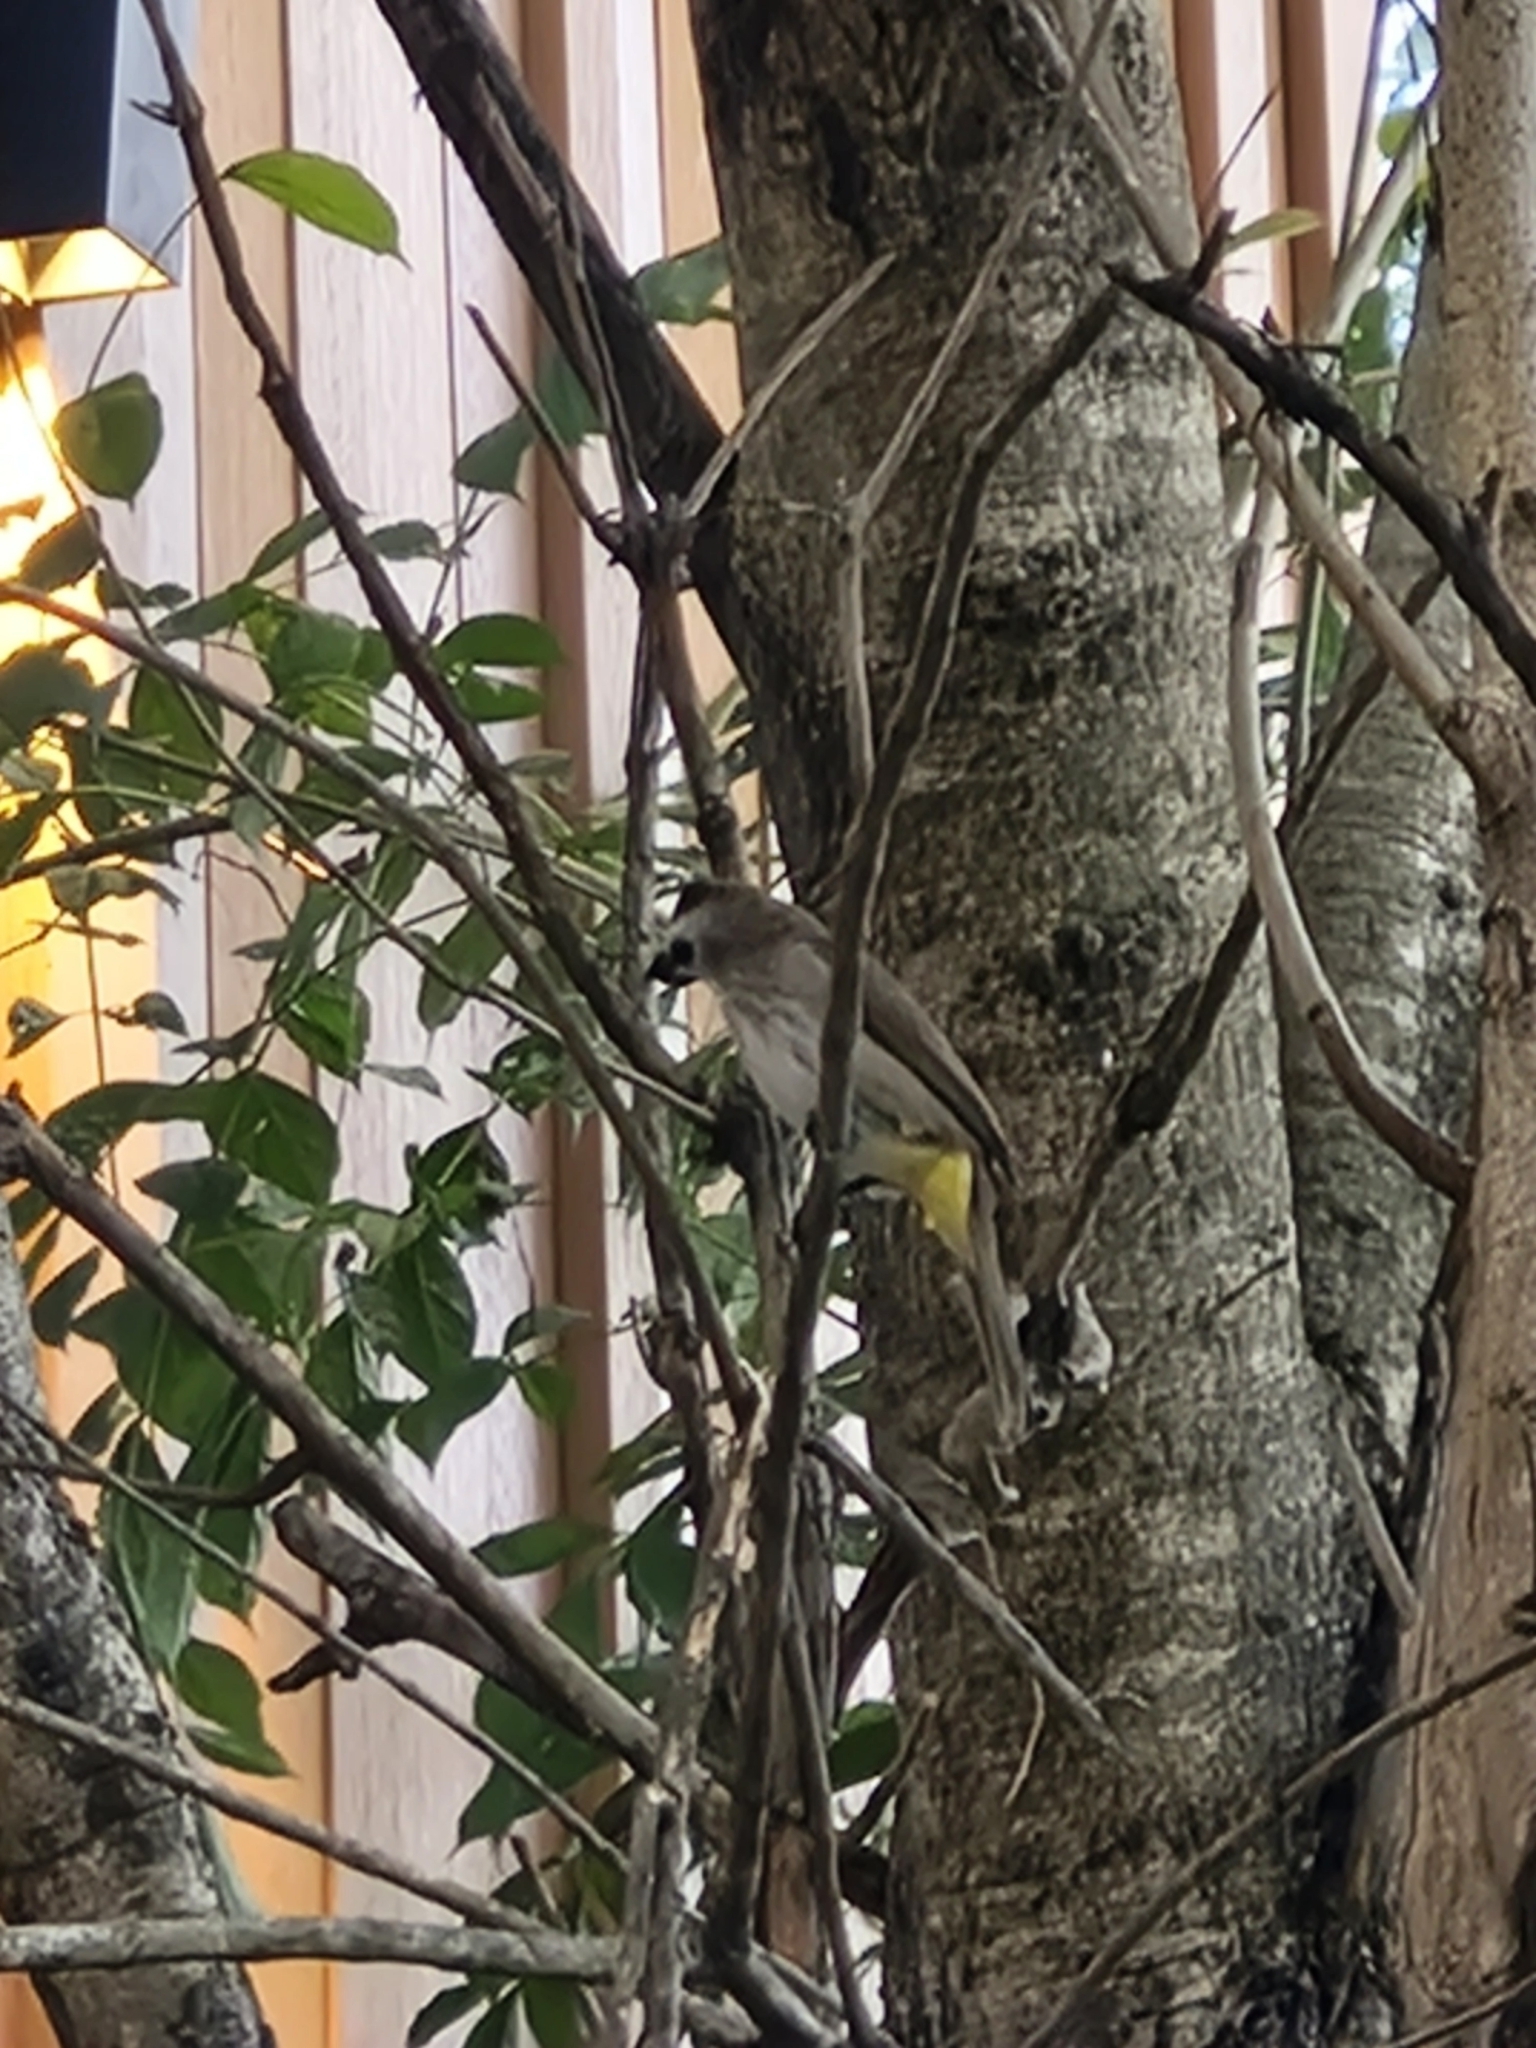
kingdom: Animalia
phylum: Chordata
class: Aves
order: Passeriformes
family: Pycnonotidae
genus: Pycnonotus
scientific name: Pycnonotus goiavier
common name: Yellow-vented bulbul
